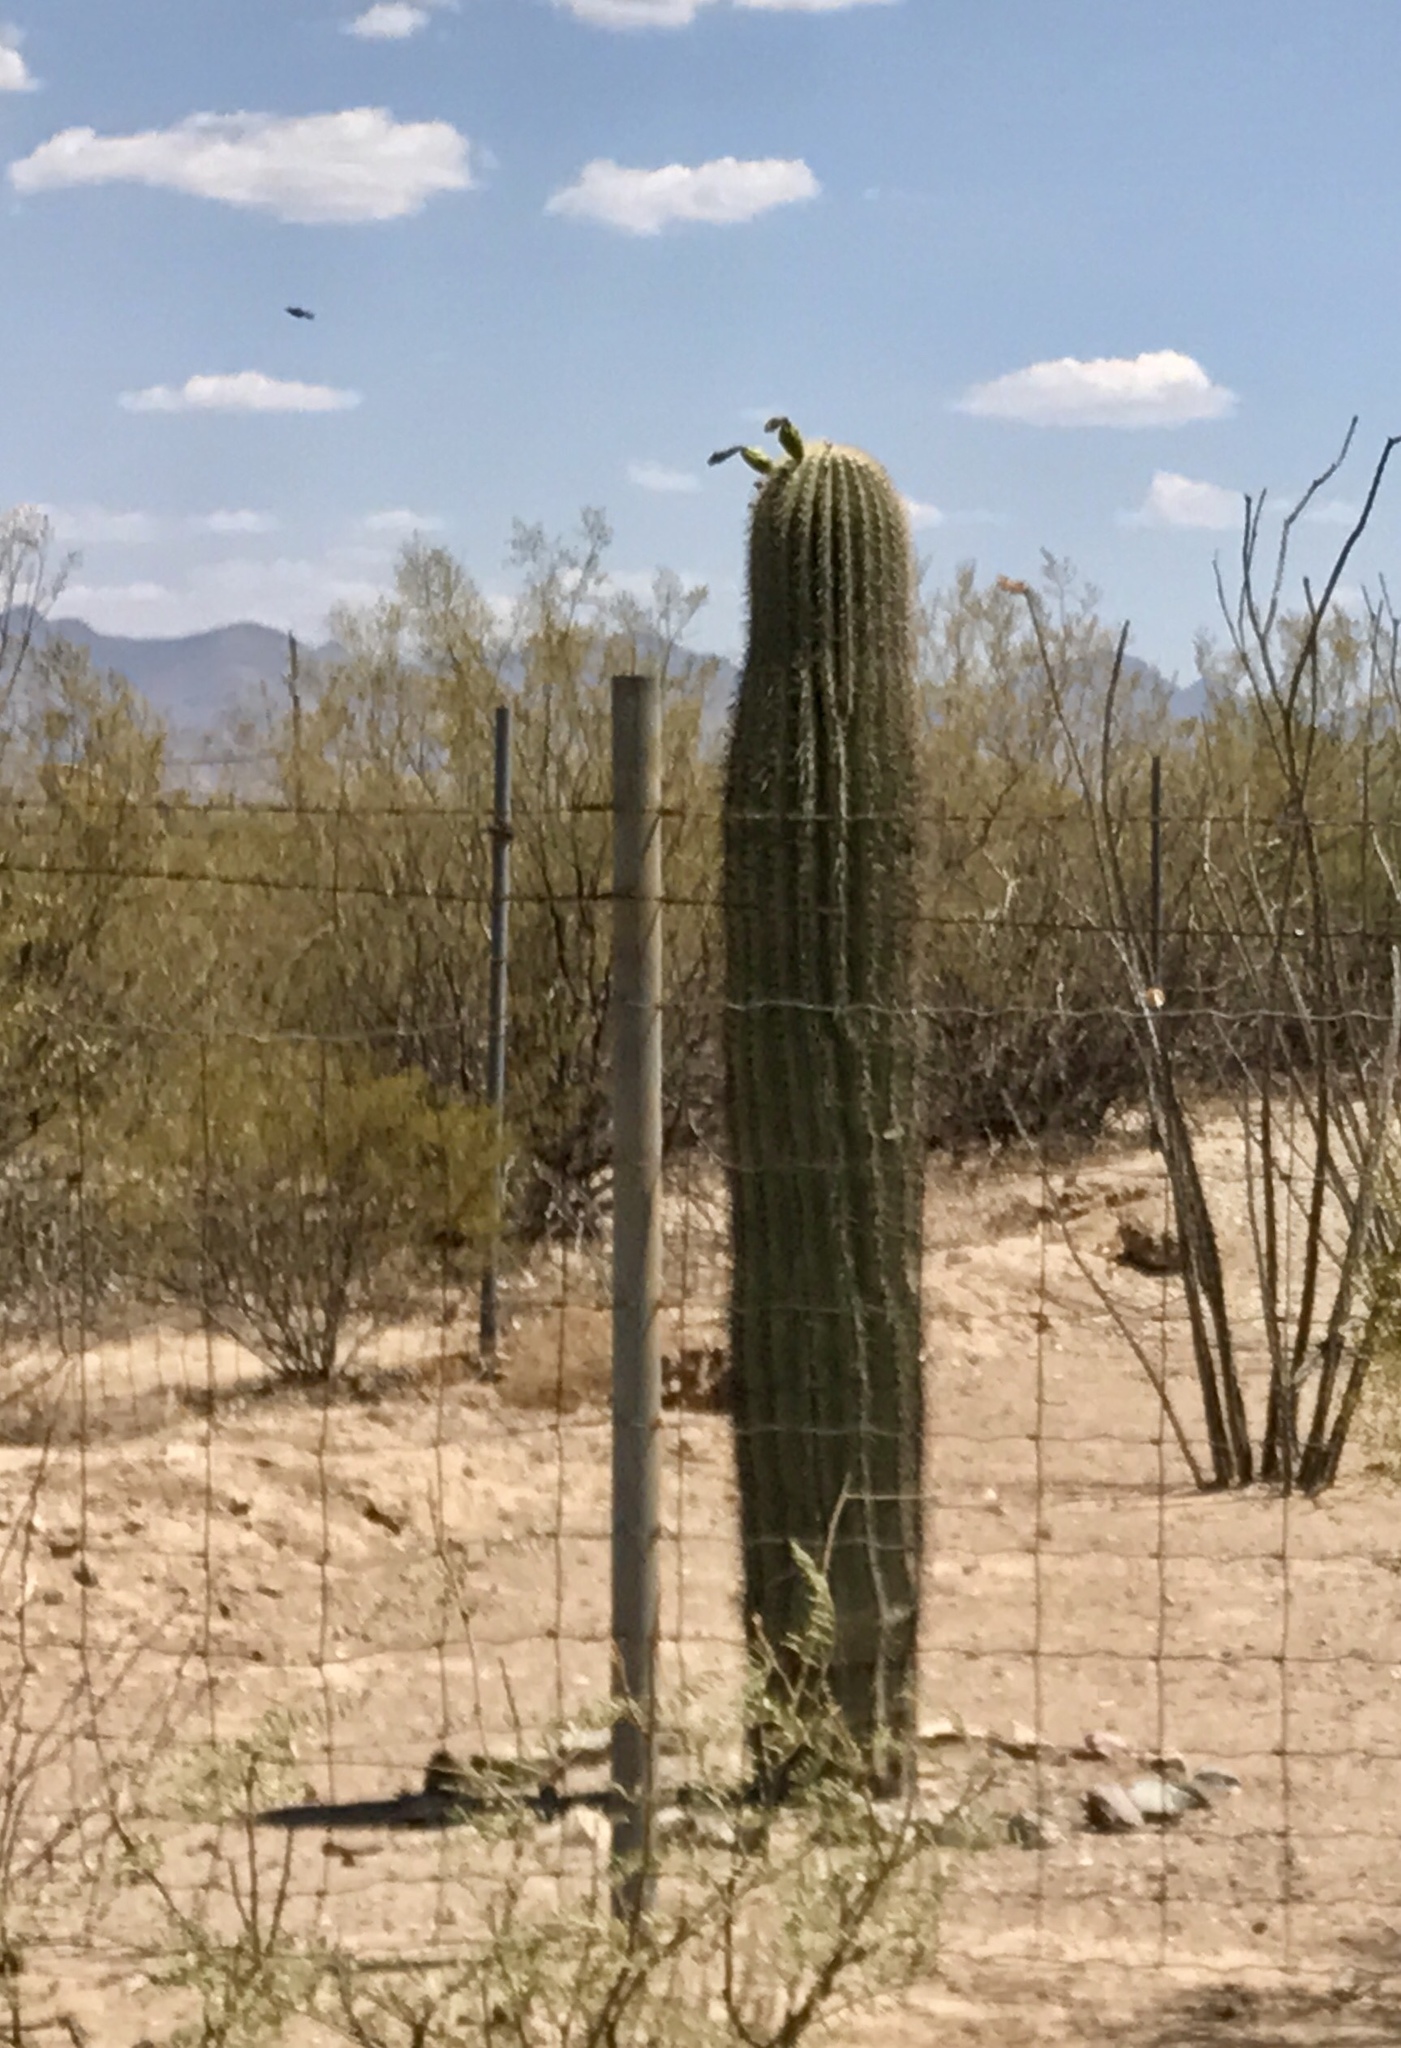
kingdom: Plantae
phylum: Tracheophyta
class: Magnoliopsida
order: Caryophyllales
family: Cactaceae
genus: Carnegiea
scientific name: Carnegiea gigantea
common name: Saguaro
